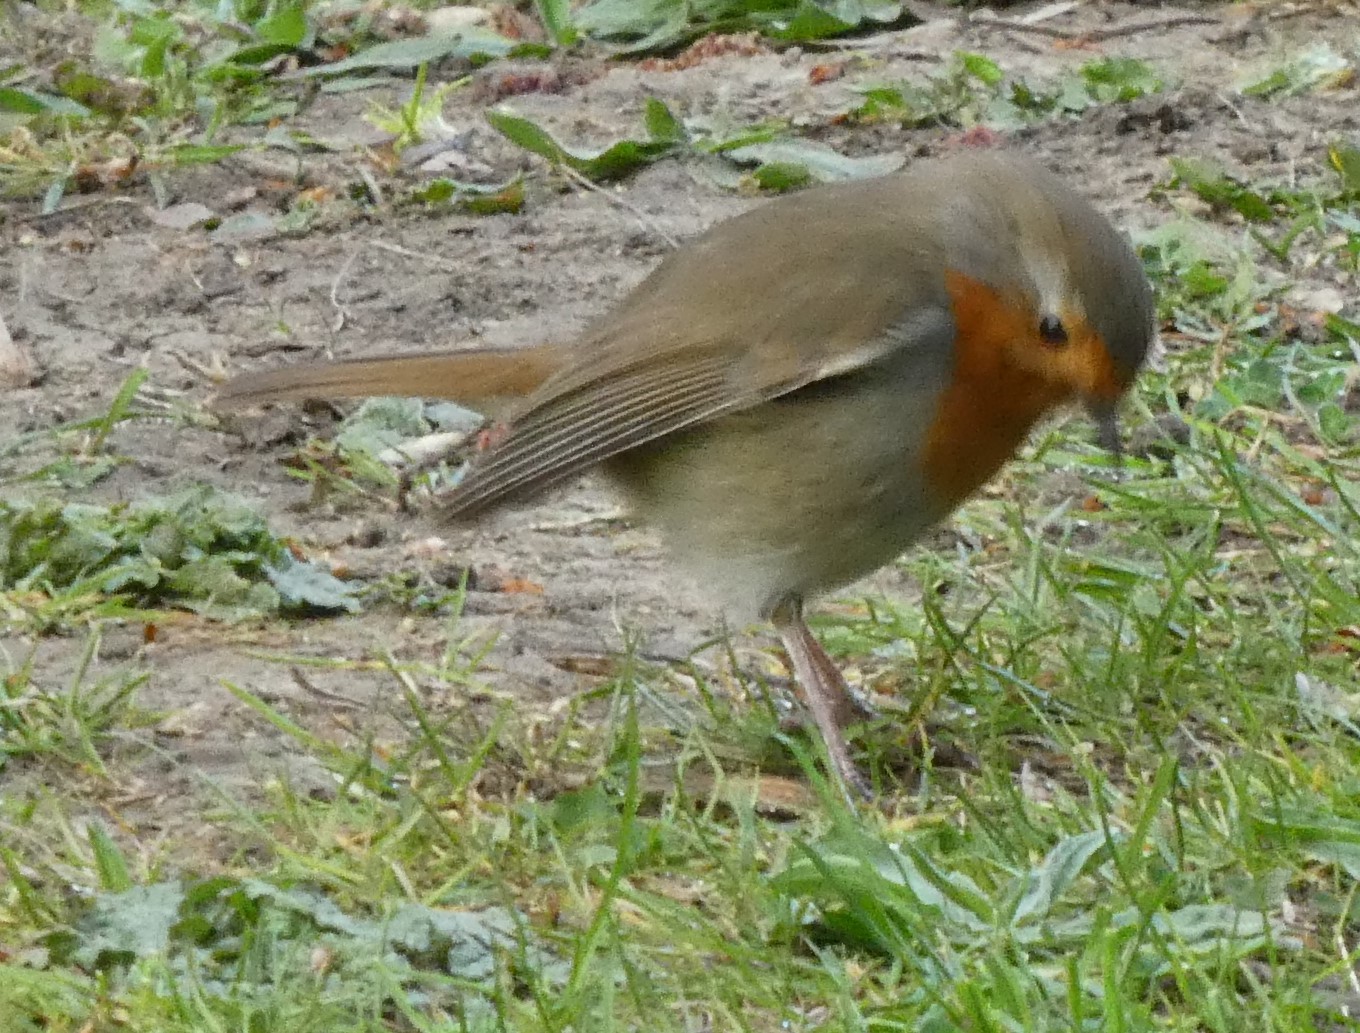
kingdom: Animalia
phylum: Chordata
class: Aves
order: Passeriformes
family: Muscicapidae
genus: Erithacus
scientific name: Erithacus rubecula
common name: European robin
